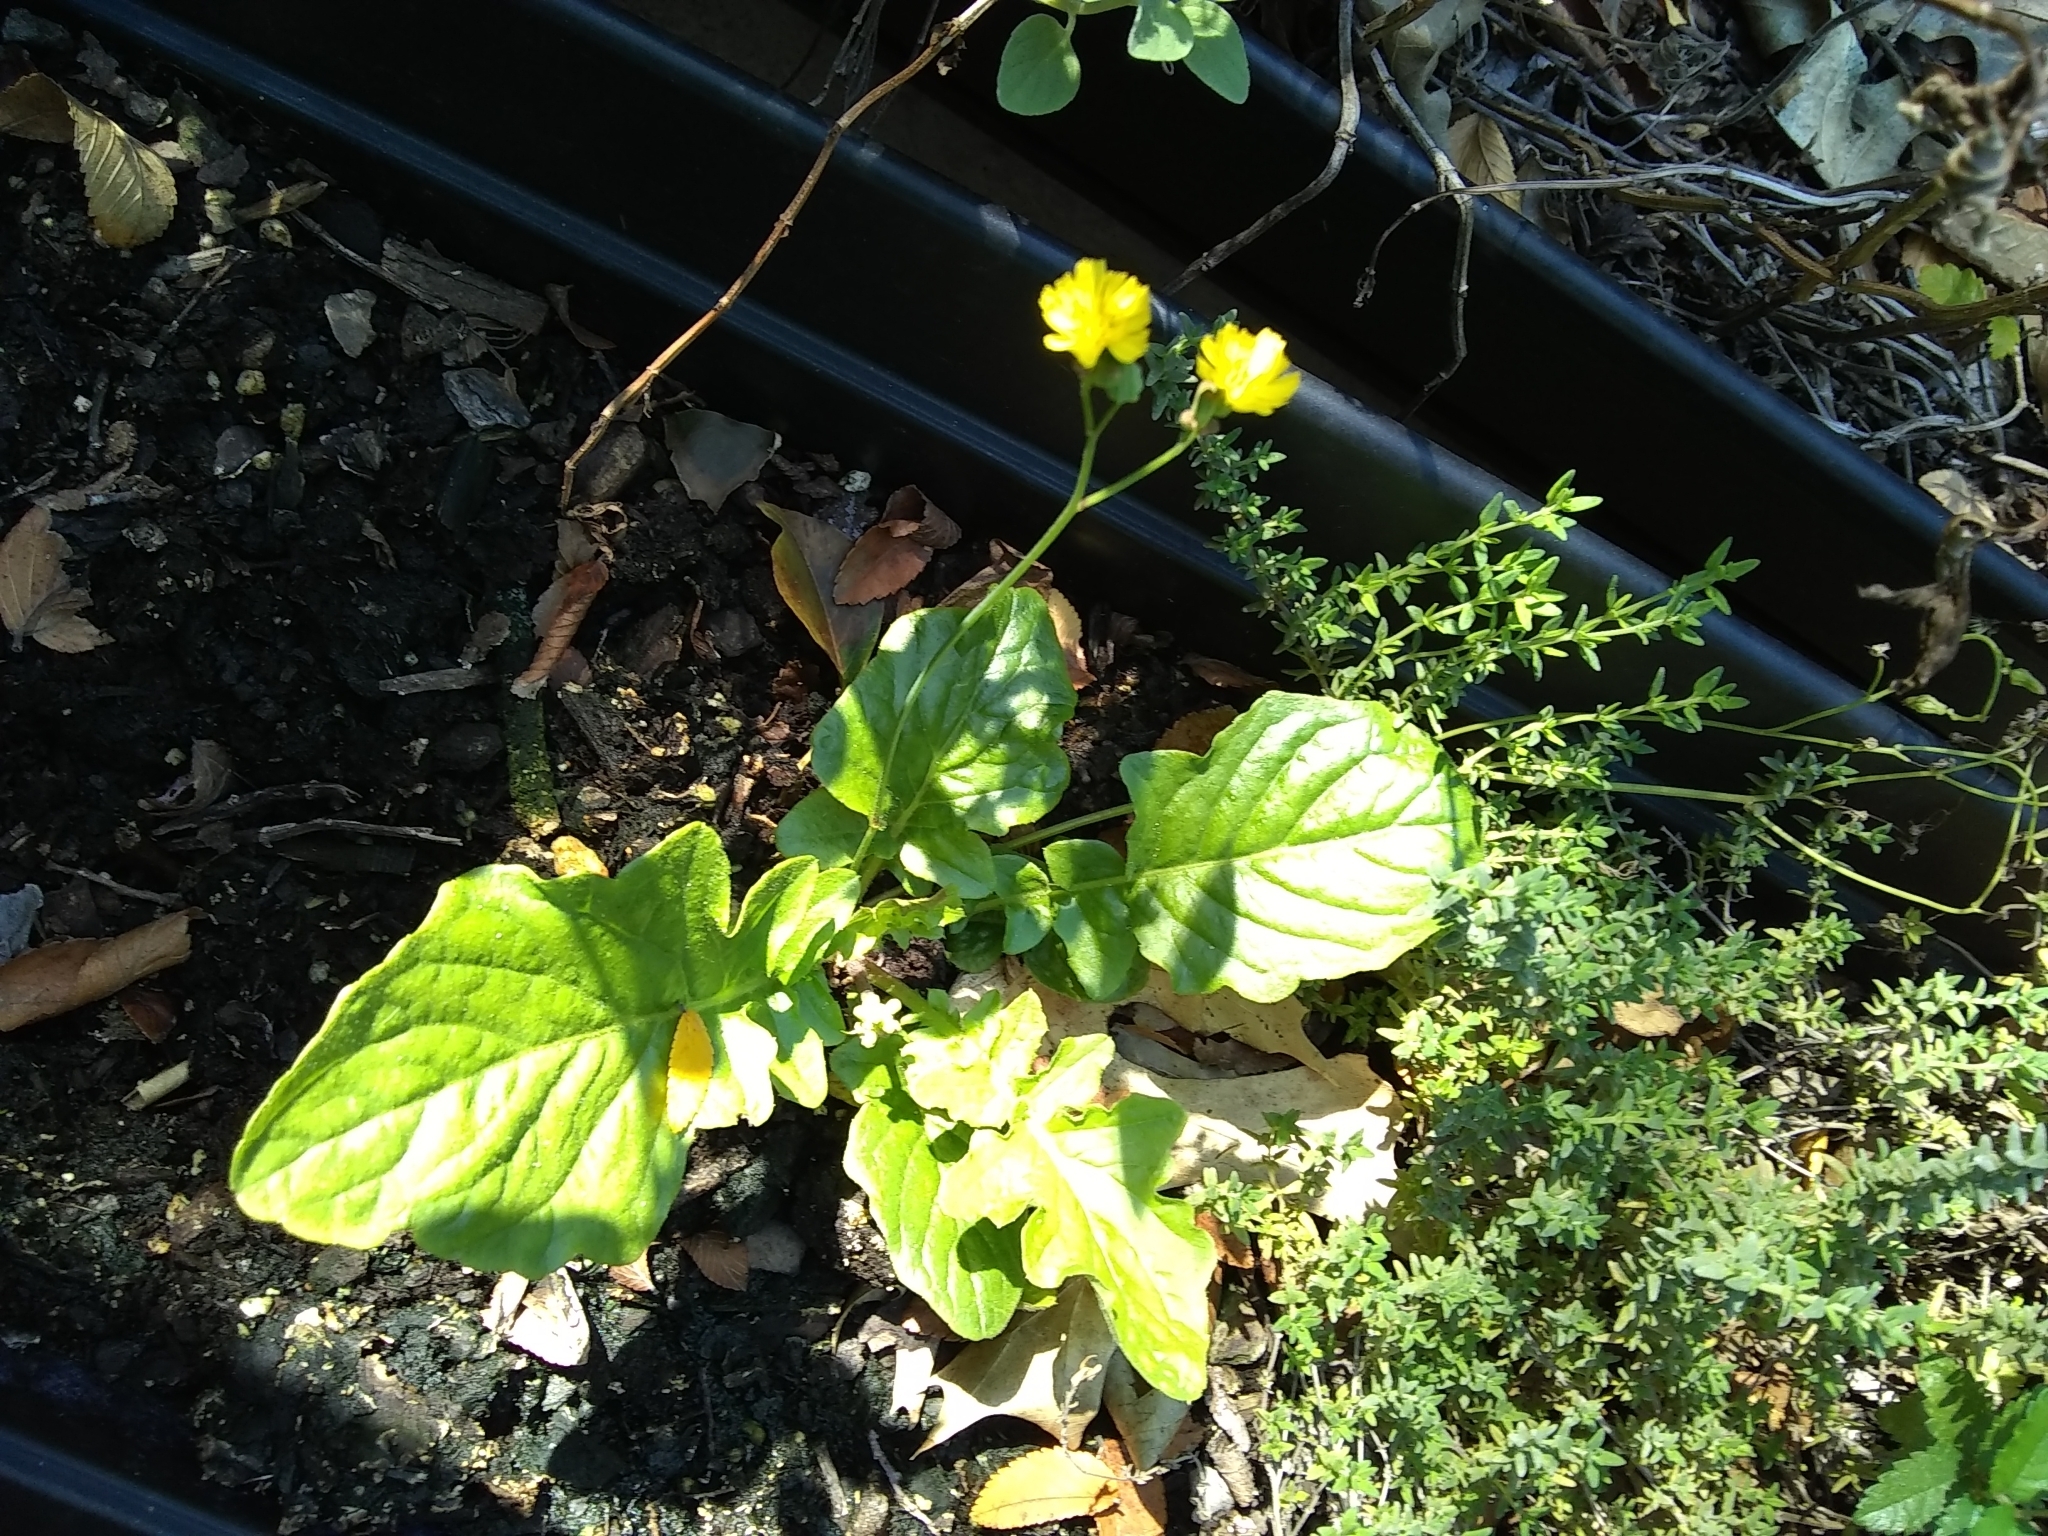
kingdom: Plantae
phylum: Tracheophyta
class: Magnoliopsida
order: Asterales
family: Asteraceae
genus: Youngia
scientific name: Youngia japonica
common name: Oriental false hawksbeard
